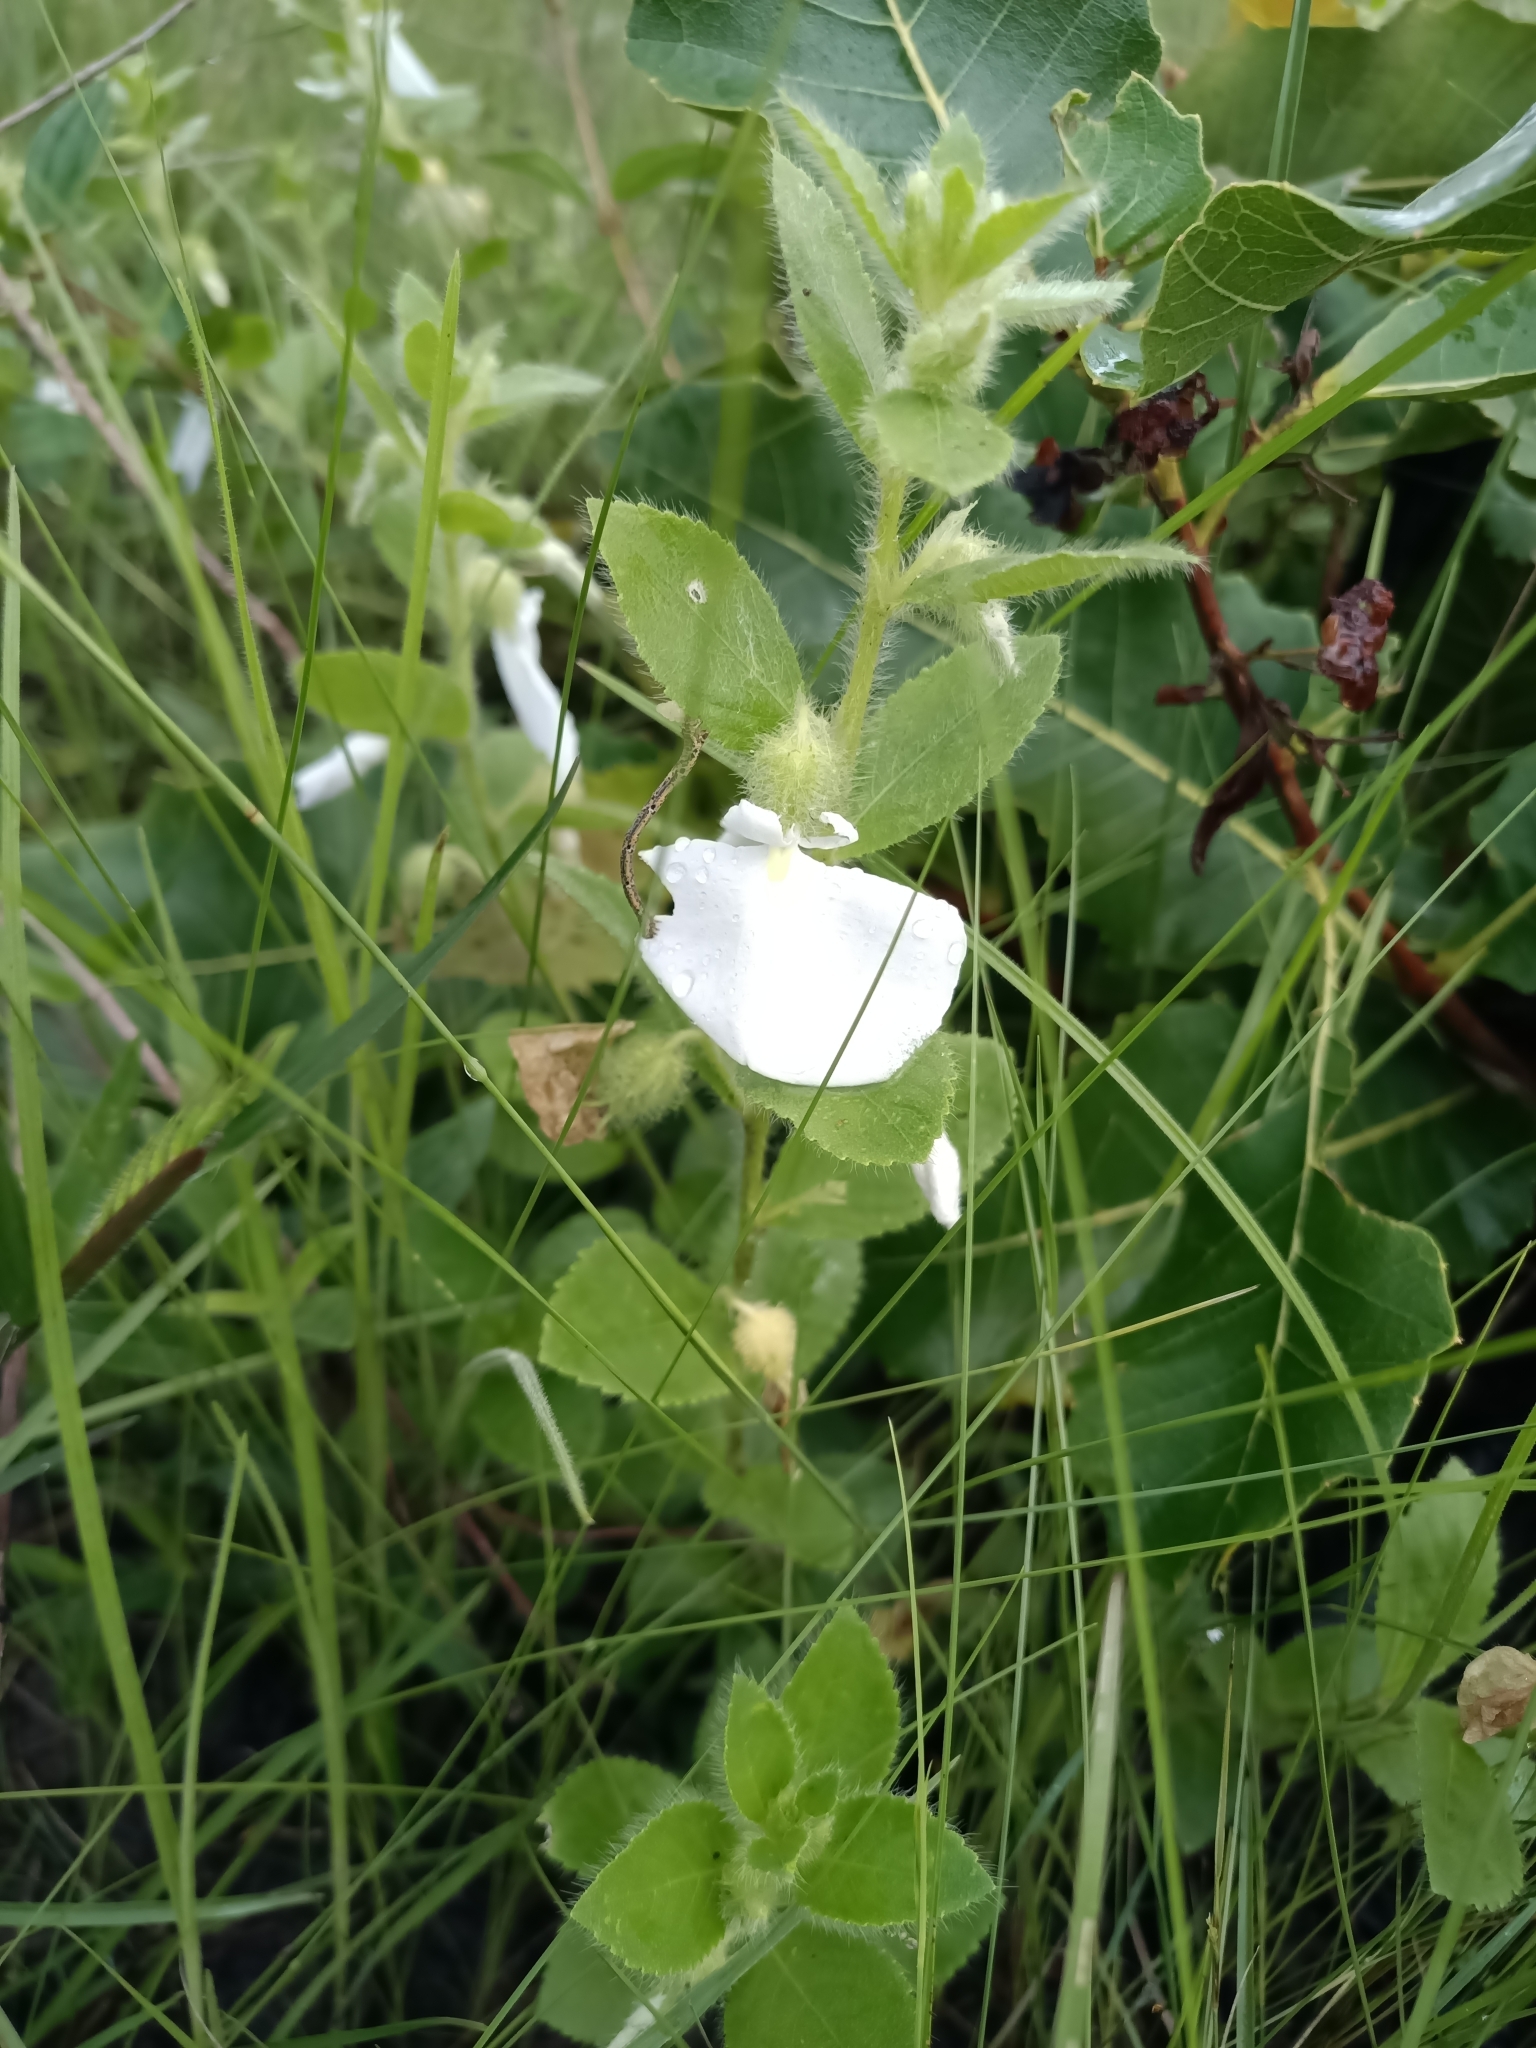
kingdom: Plantae
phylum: Tracheophyta
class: Magnoliopsida
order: Malpighiales
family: Violaceae
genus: Pombalia
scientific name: Pombalia calceolaria
